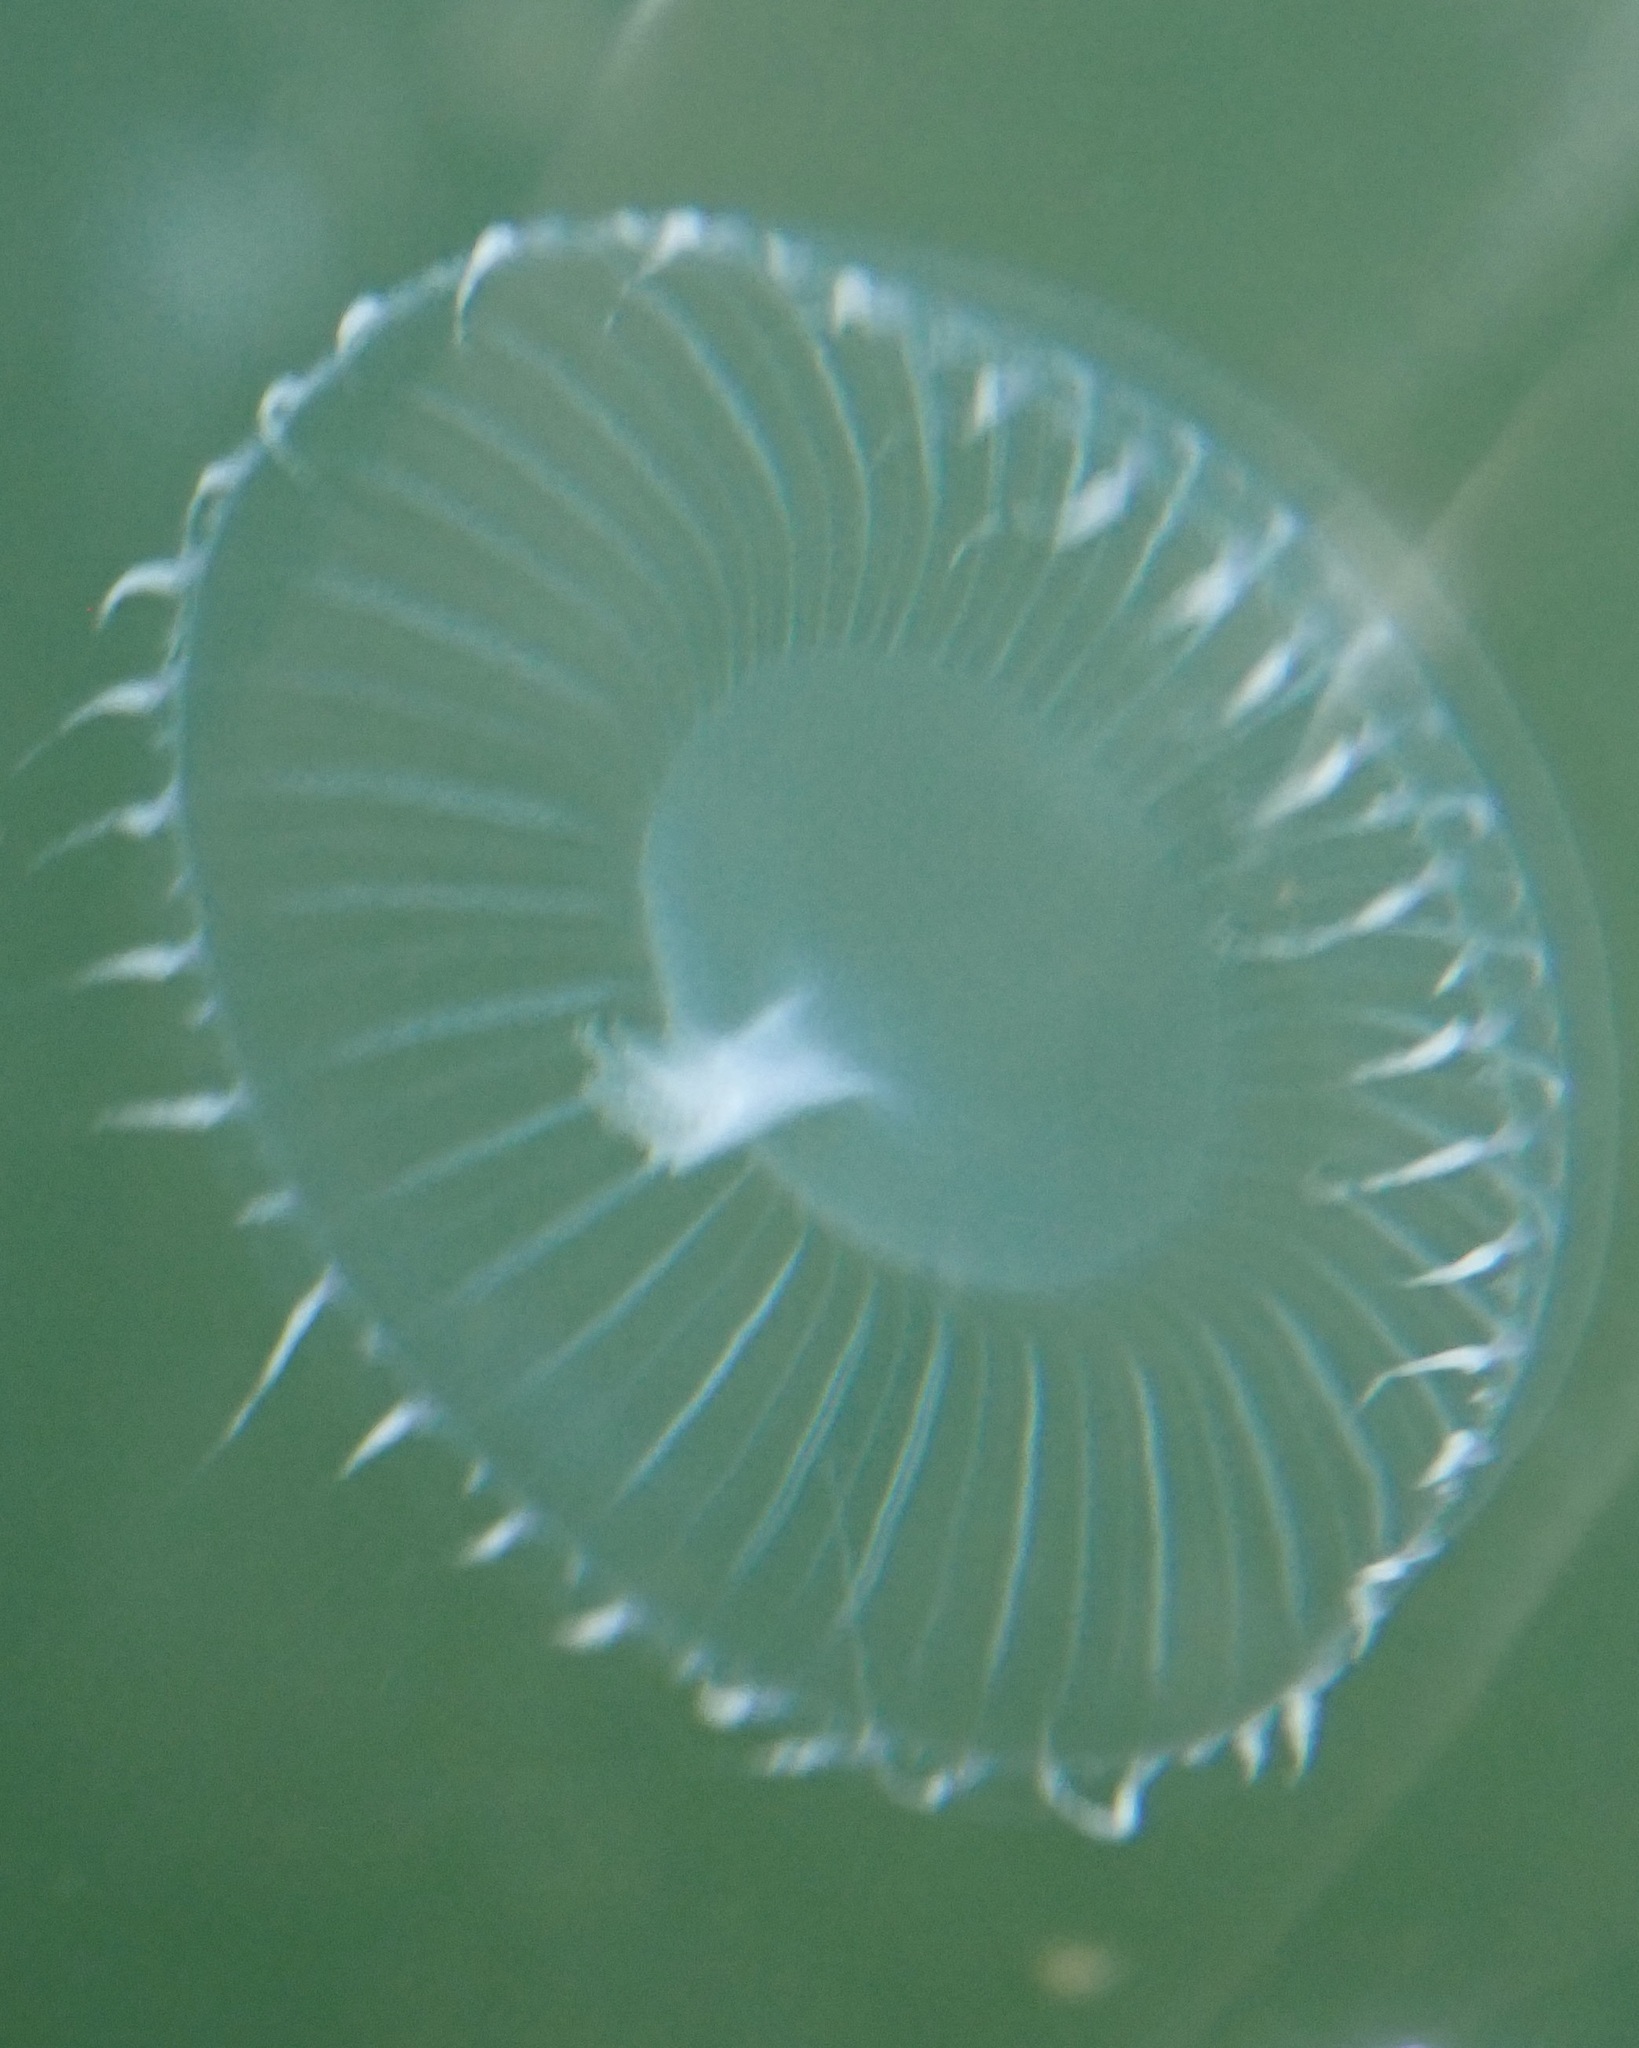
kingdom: Animalia
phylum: Cnidaria
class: Hydrozoa
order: Leptothecata
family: Aequoreidae
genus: Aequorea
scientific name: Aequorea victoria
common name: Water jellyfish
